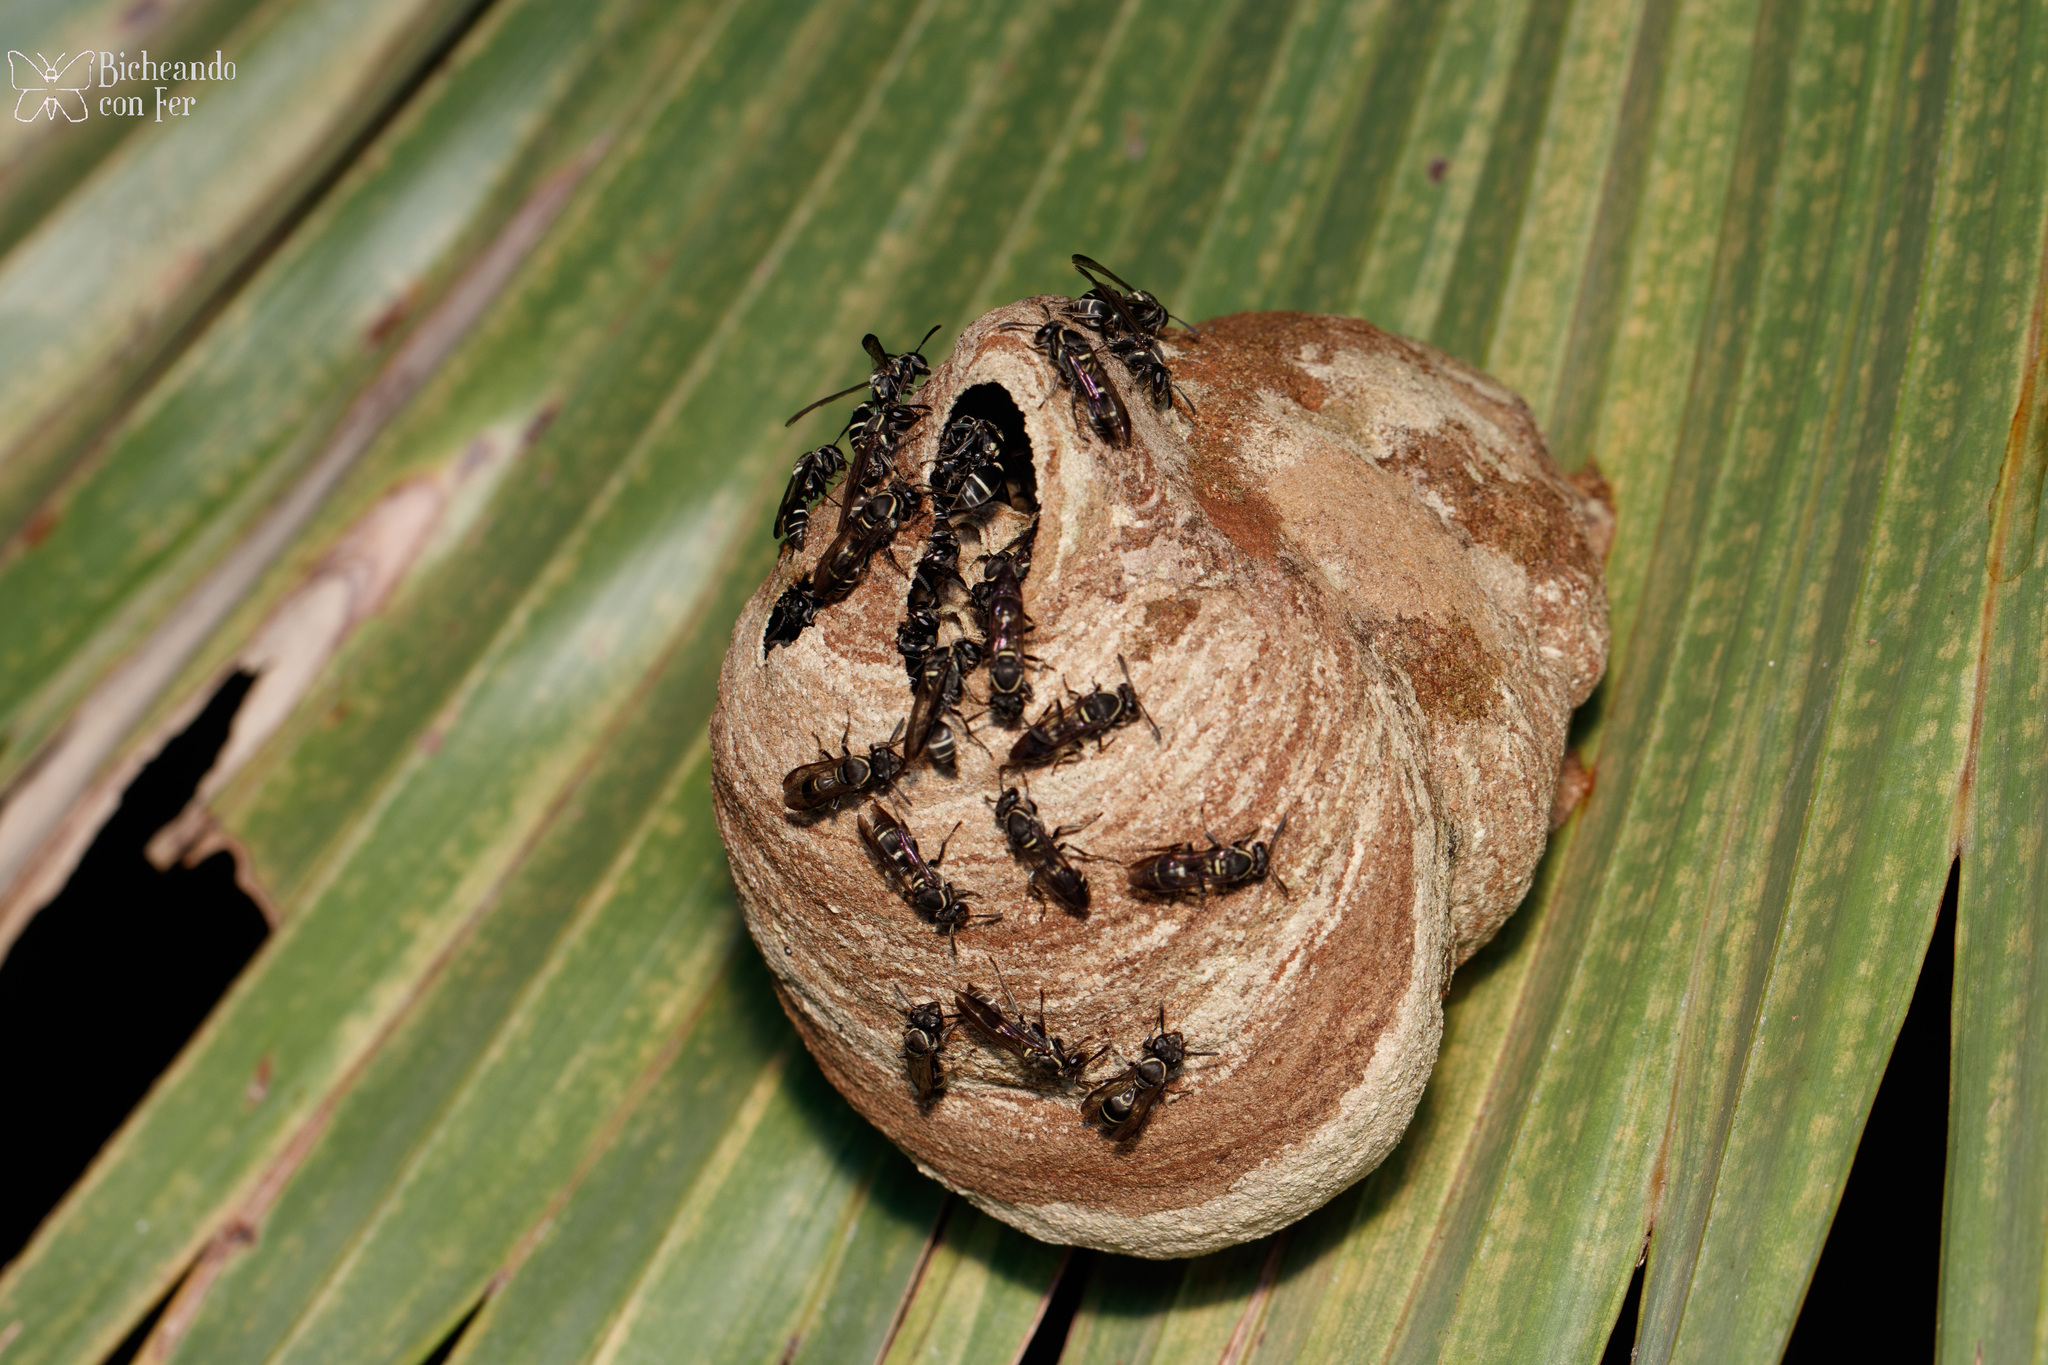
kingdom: Animalia
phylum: Arthropoda
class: Insecta
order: Hymenoptera
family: Eumenidae
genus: Polybia
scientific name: Polybia plebeja
